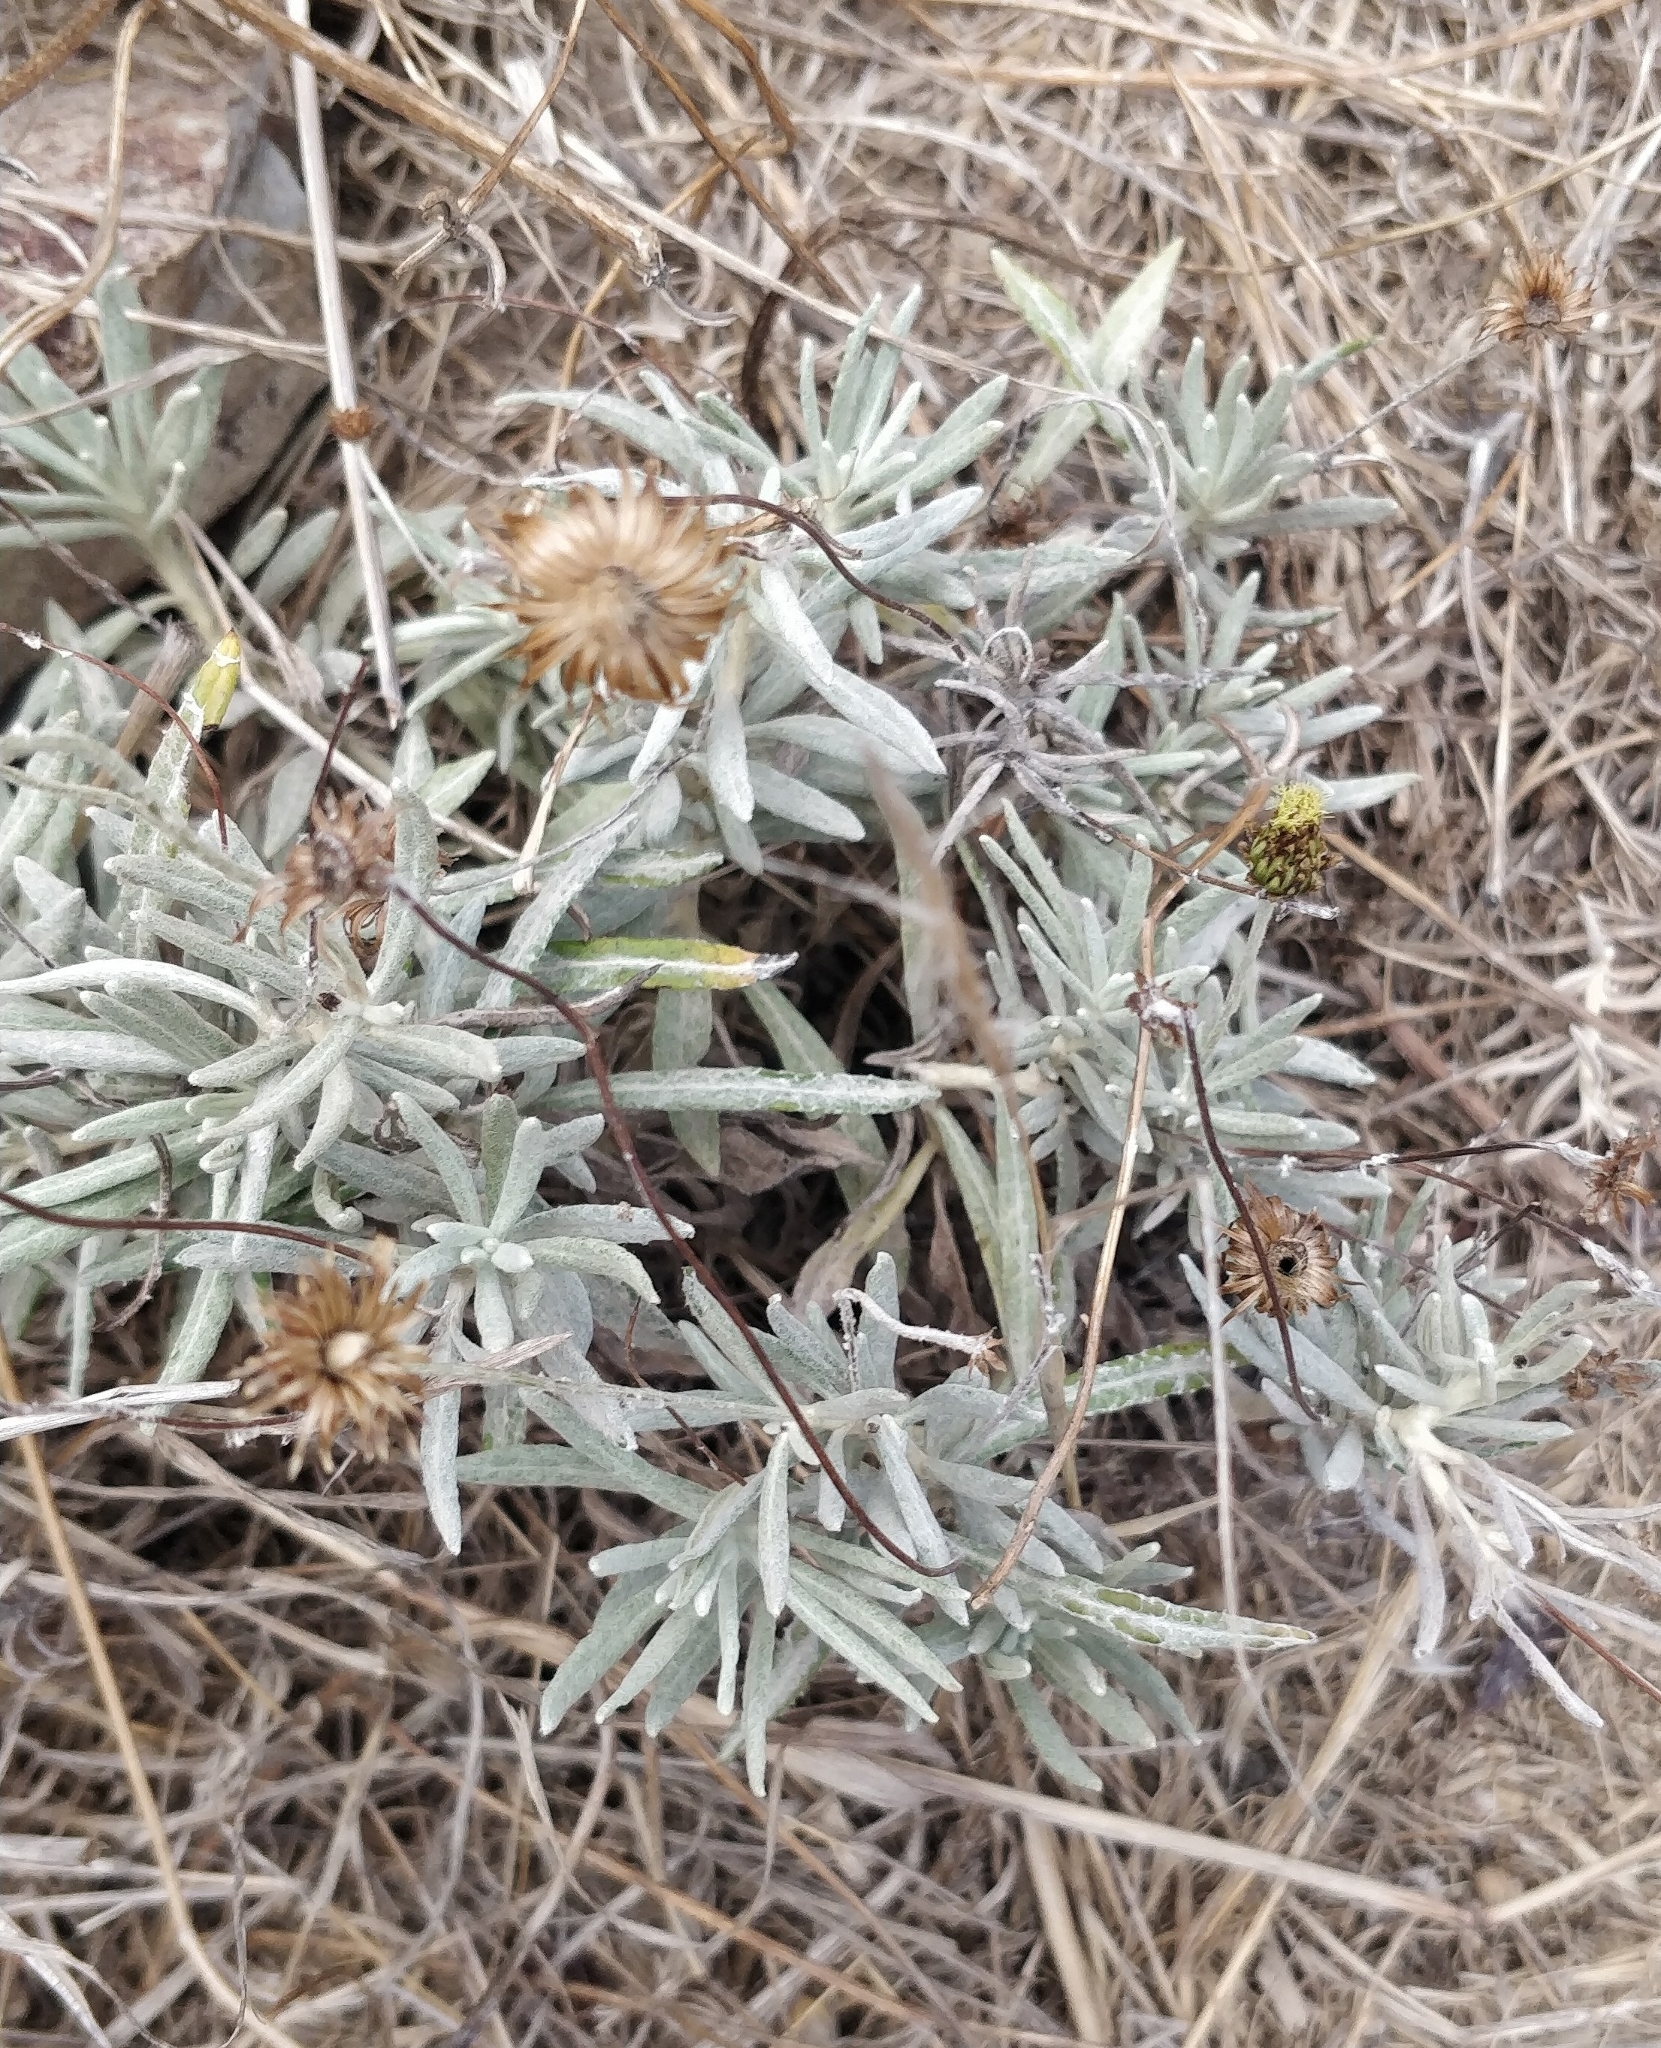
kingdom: Plantae
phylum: Tracheophyta
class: Magnoliopsida
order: Asterales
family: Asteraceae
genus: Phagnalon
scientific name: Phagnalon saxatile
